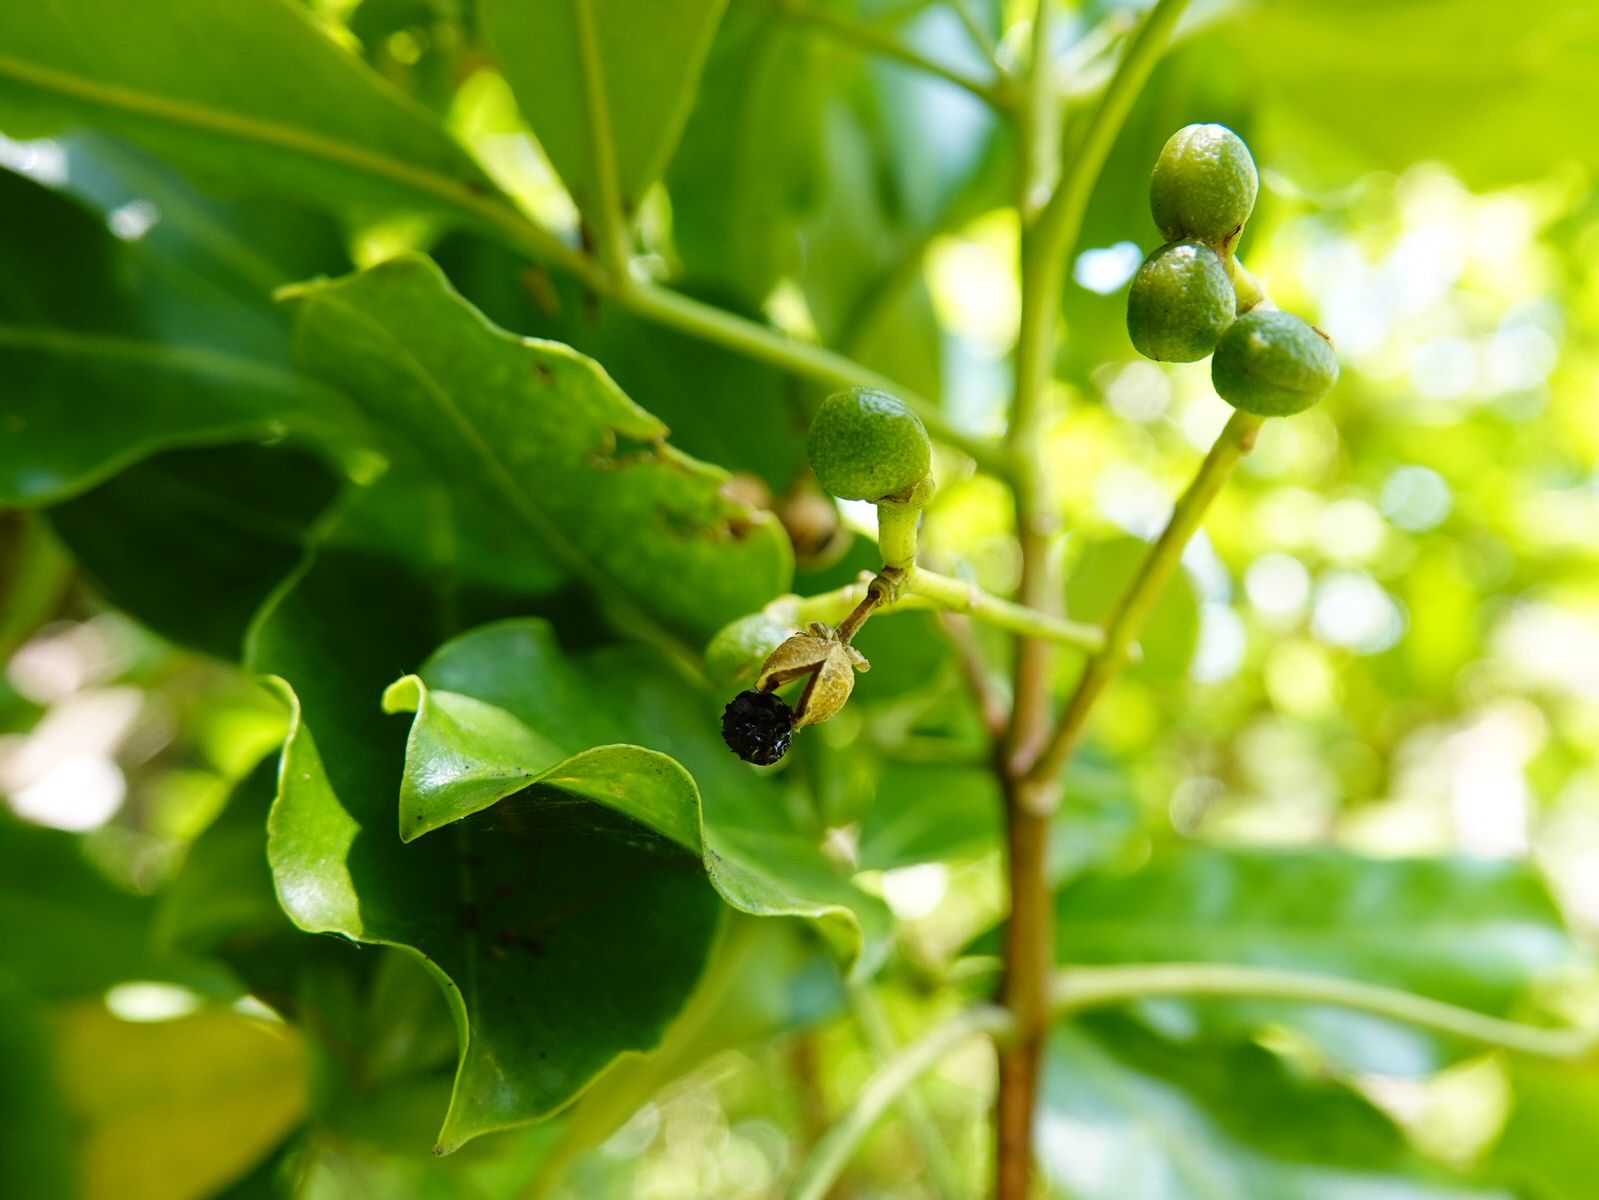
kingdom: Plantae
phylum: Tracheophyta
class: Magnoliopsida
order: Sapindales
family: Rutaceae
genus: Melicope
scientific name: Melicope ternata
